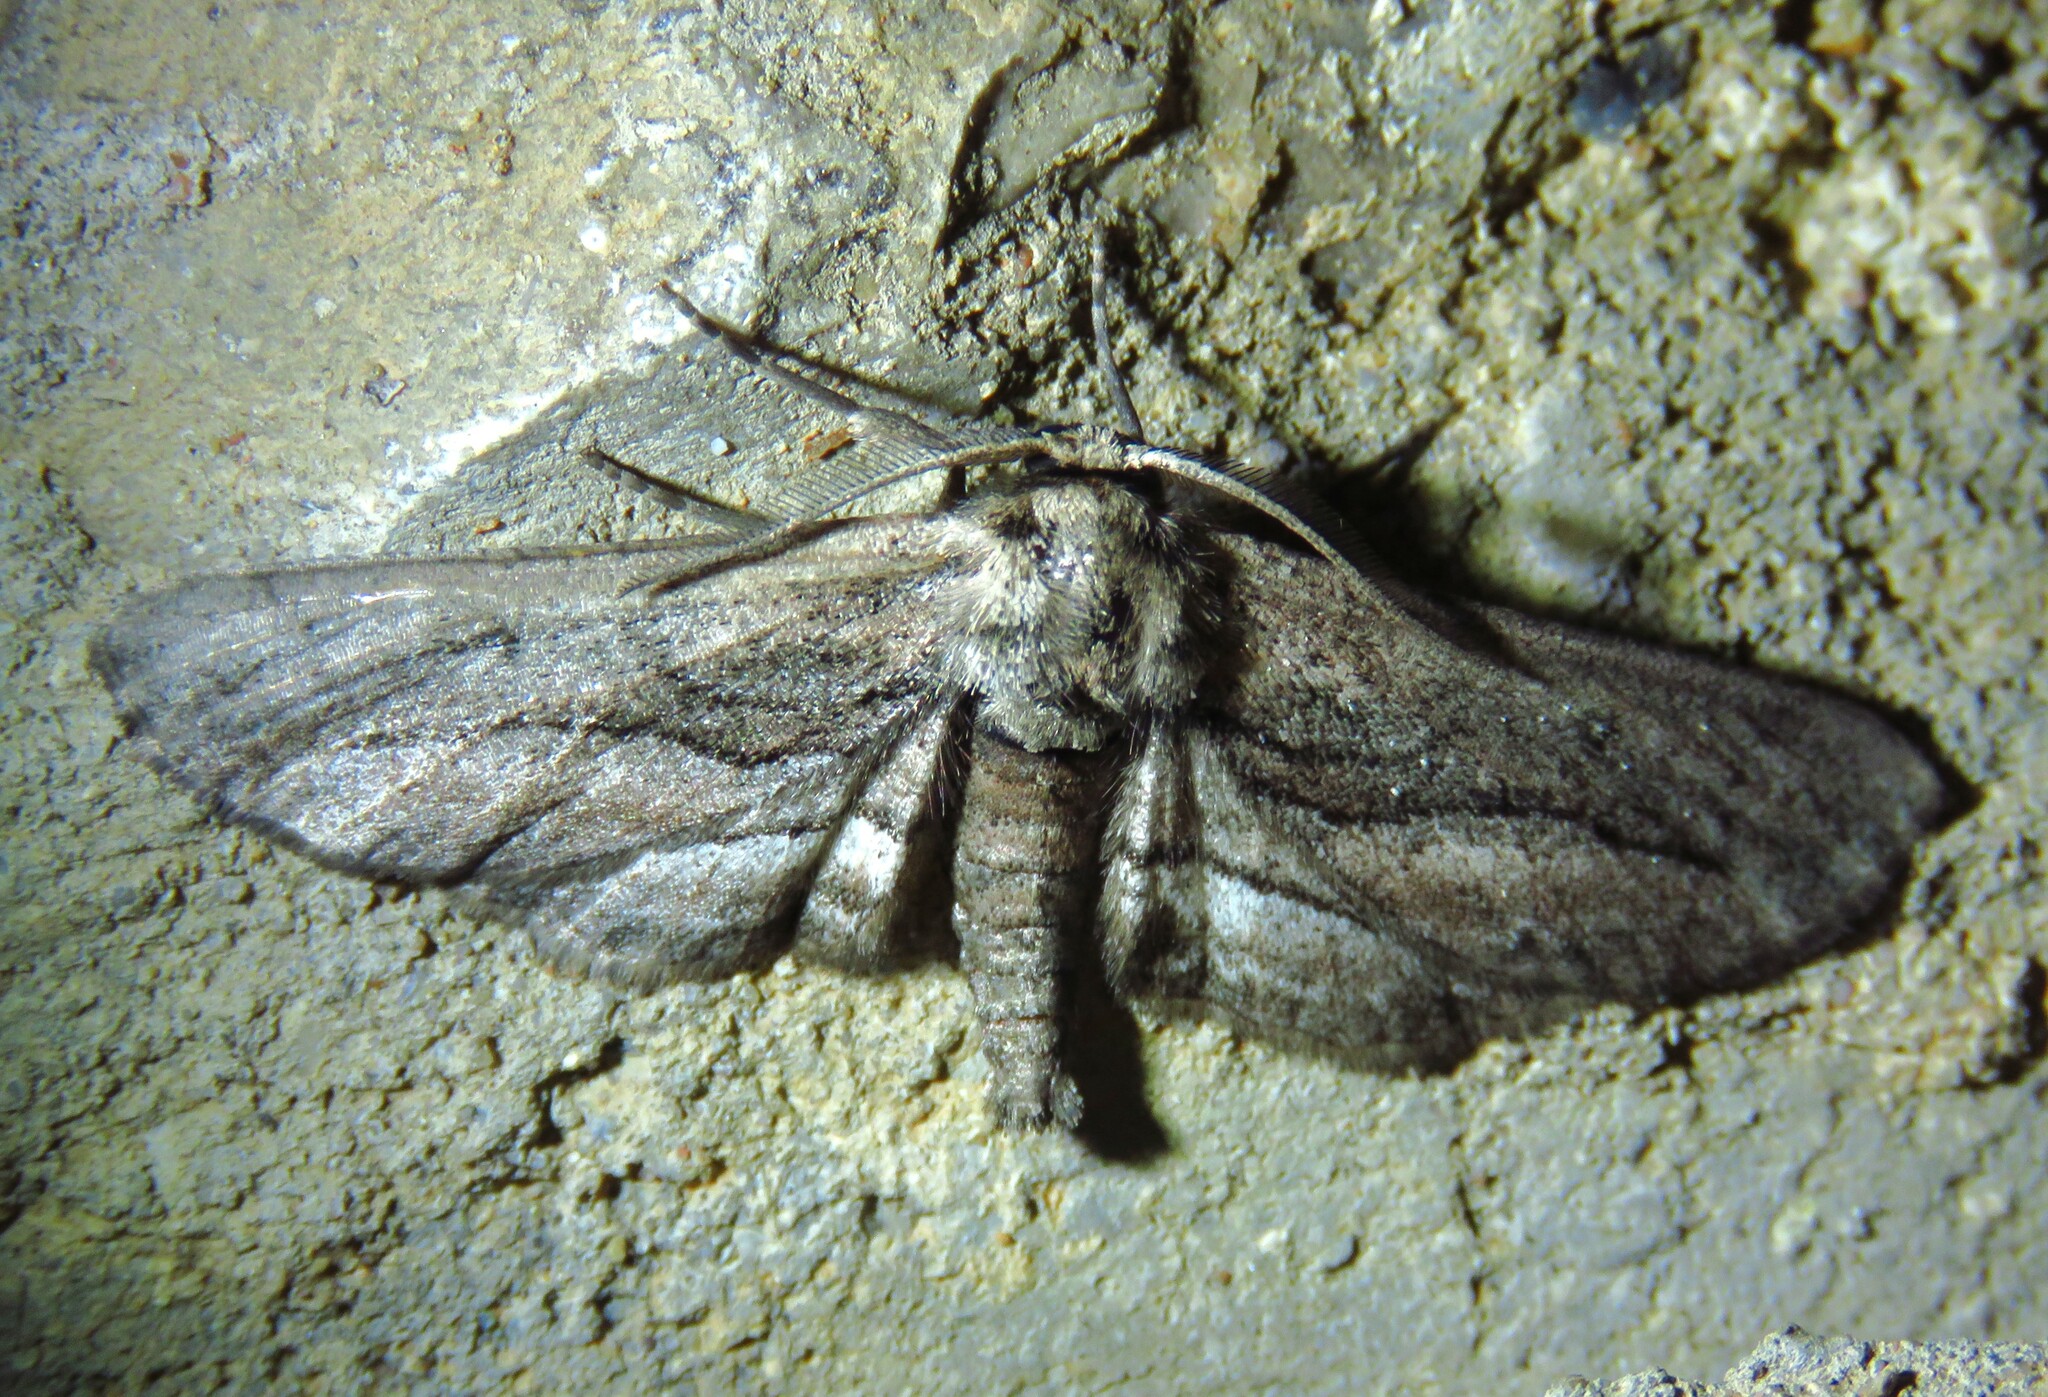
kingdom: Animalia
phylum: Arthropoda
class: Insecta
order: Lepidoptera
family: Geometridae
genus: Holochroa
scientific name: Holochroa dissociarius
